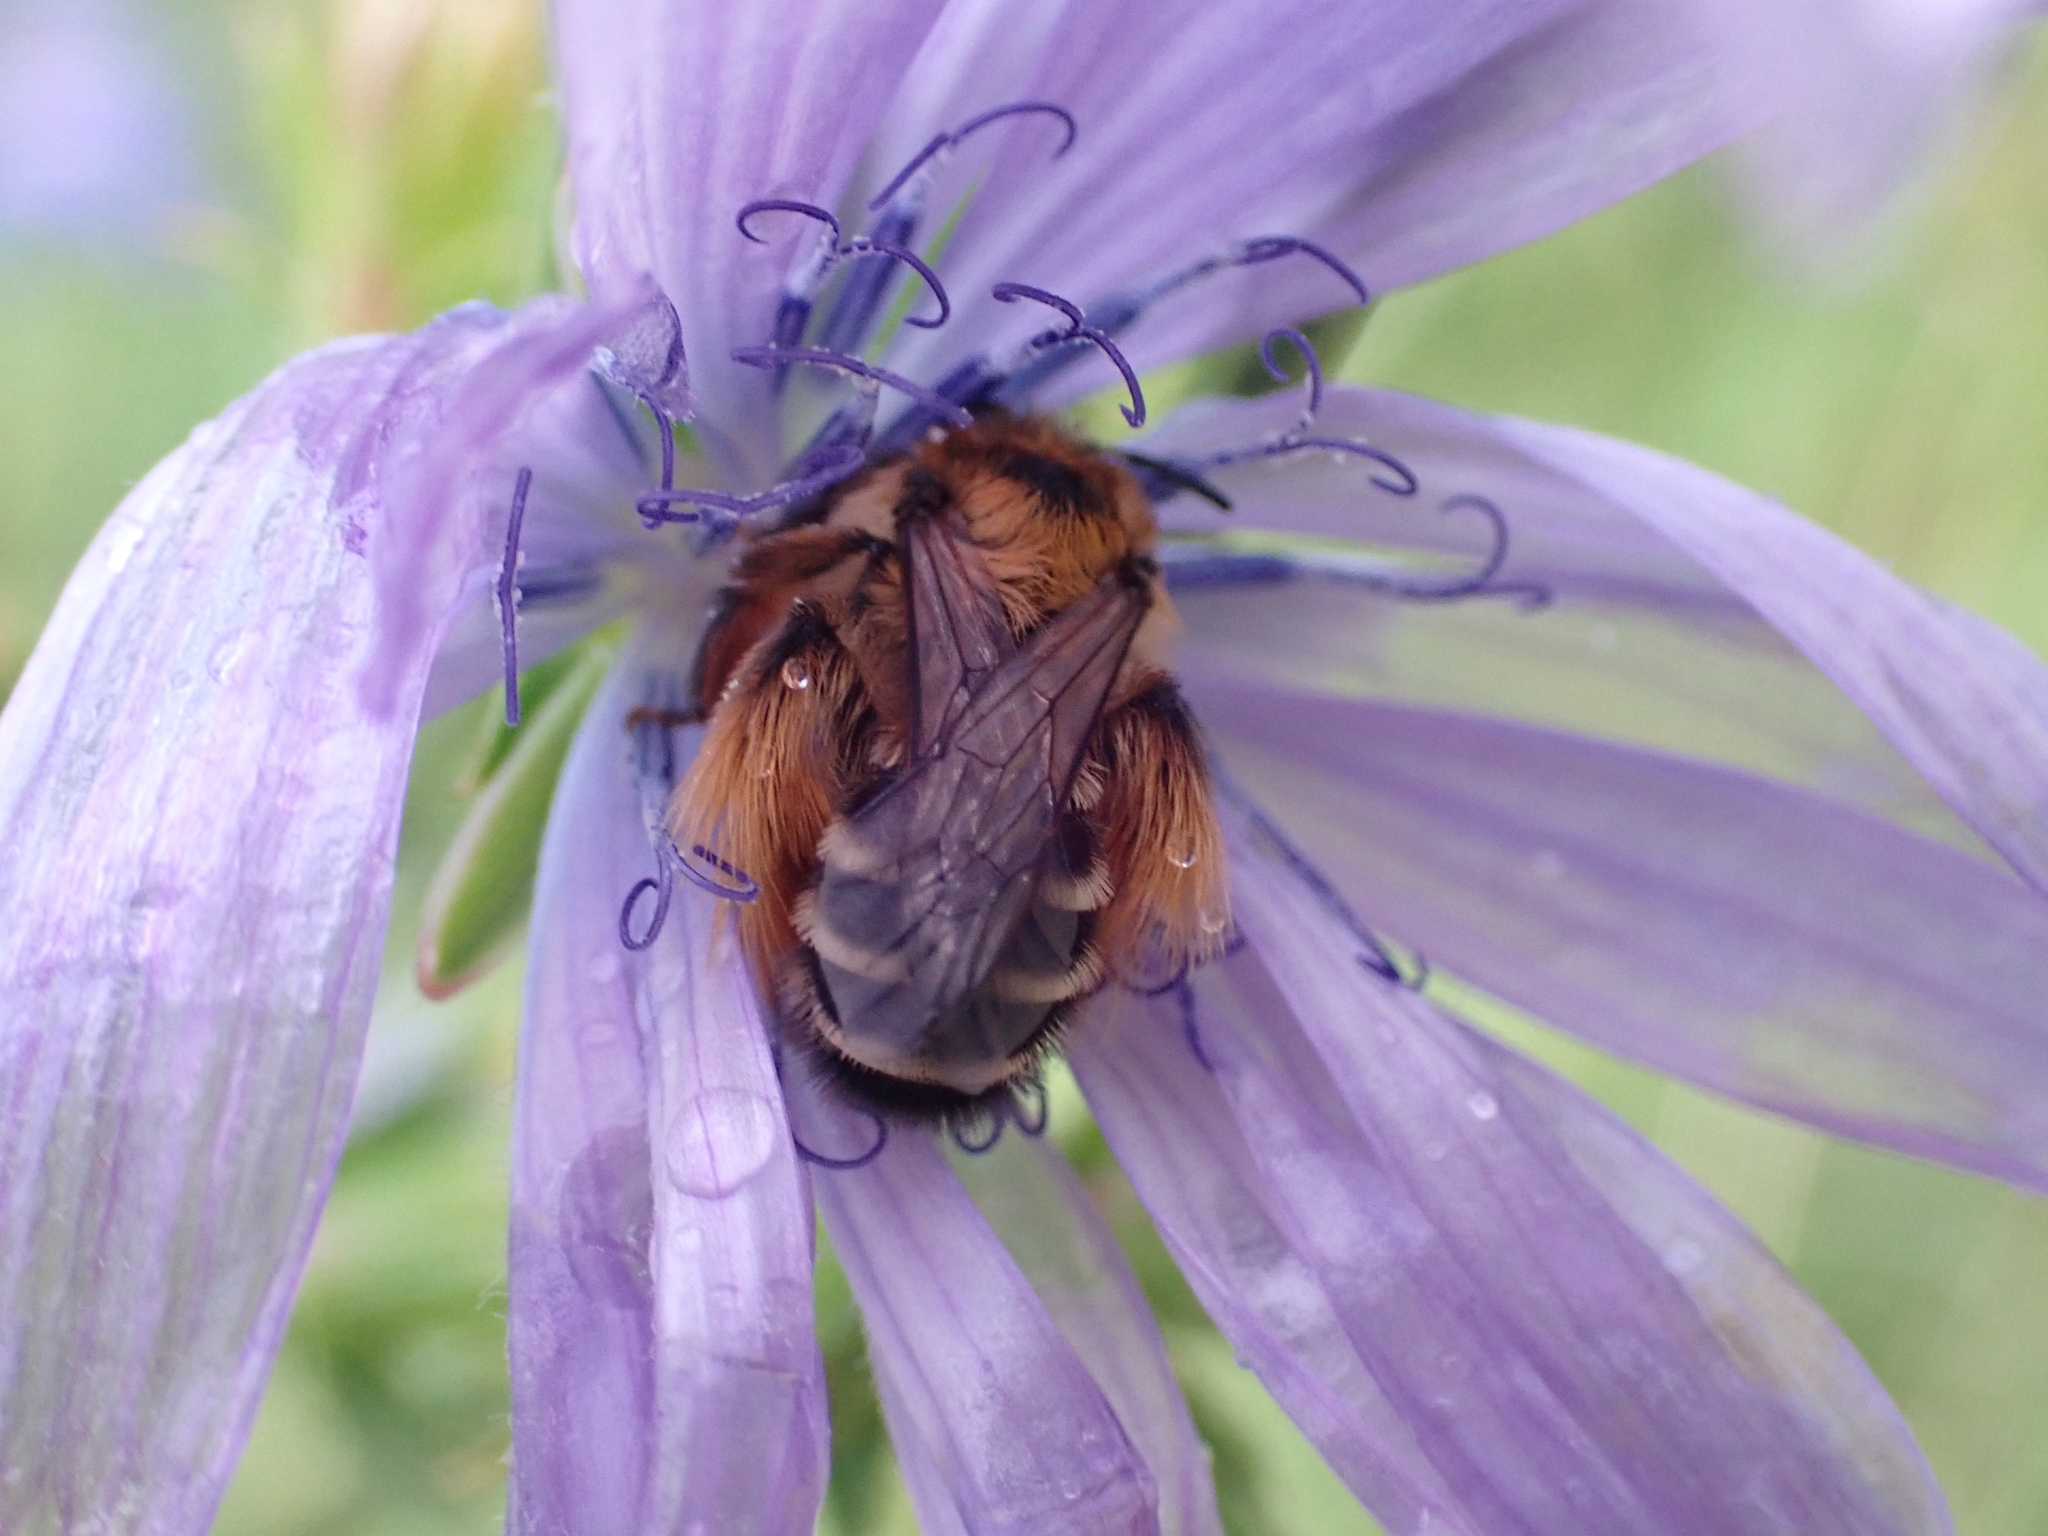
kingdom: Animalia
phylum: Arthropoda
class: Insecta
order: Hymenoptera
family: Melittidae
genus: Dasypoda
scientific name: Dasypoda hirtipes
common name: Pantaloon bee
